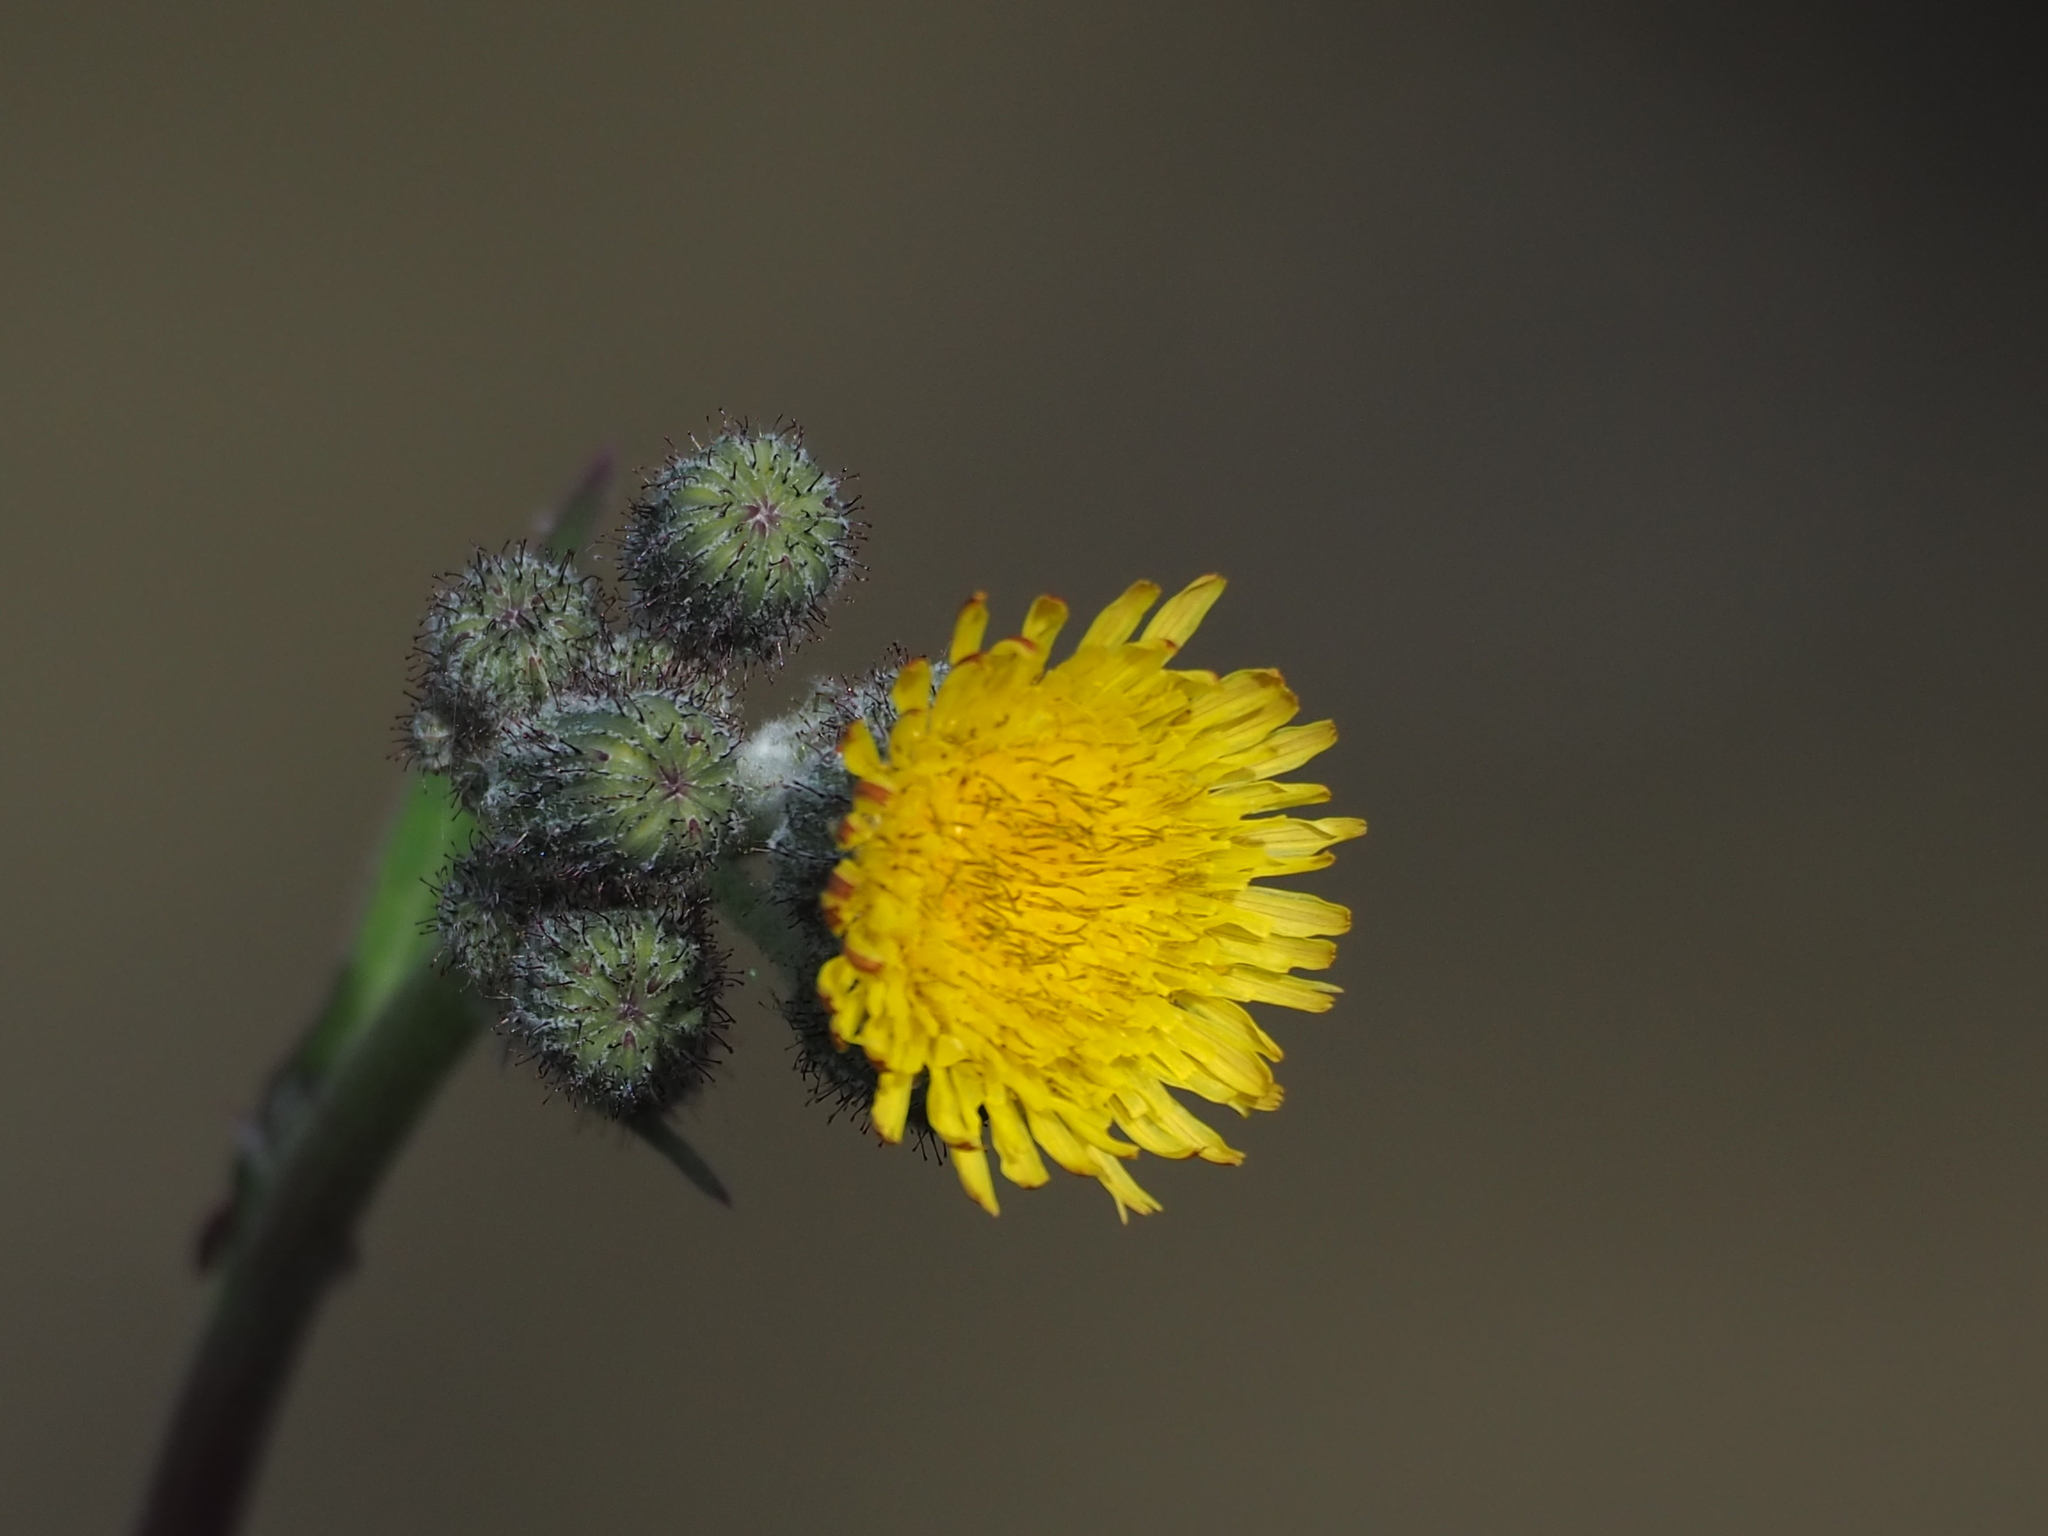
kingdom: Plantae
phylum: Tracheophyta
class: Magnoliopsida
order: Asterales
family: Asteraceae
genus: Sonchus
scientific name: Sonchus arvensis
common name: Perennial sow-thistle
